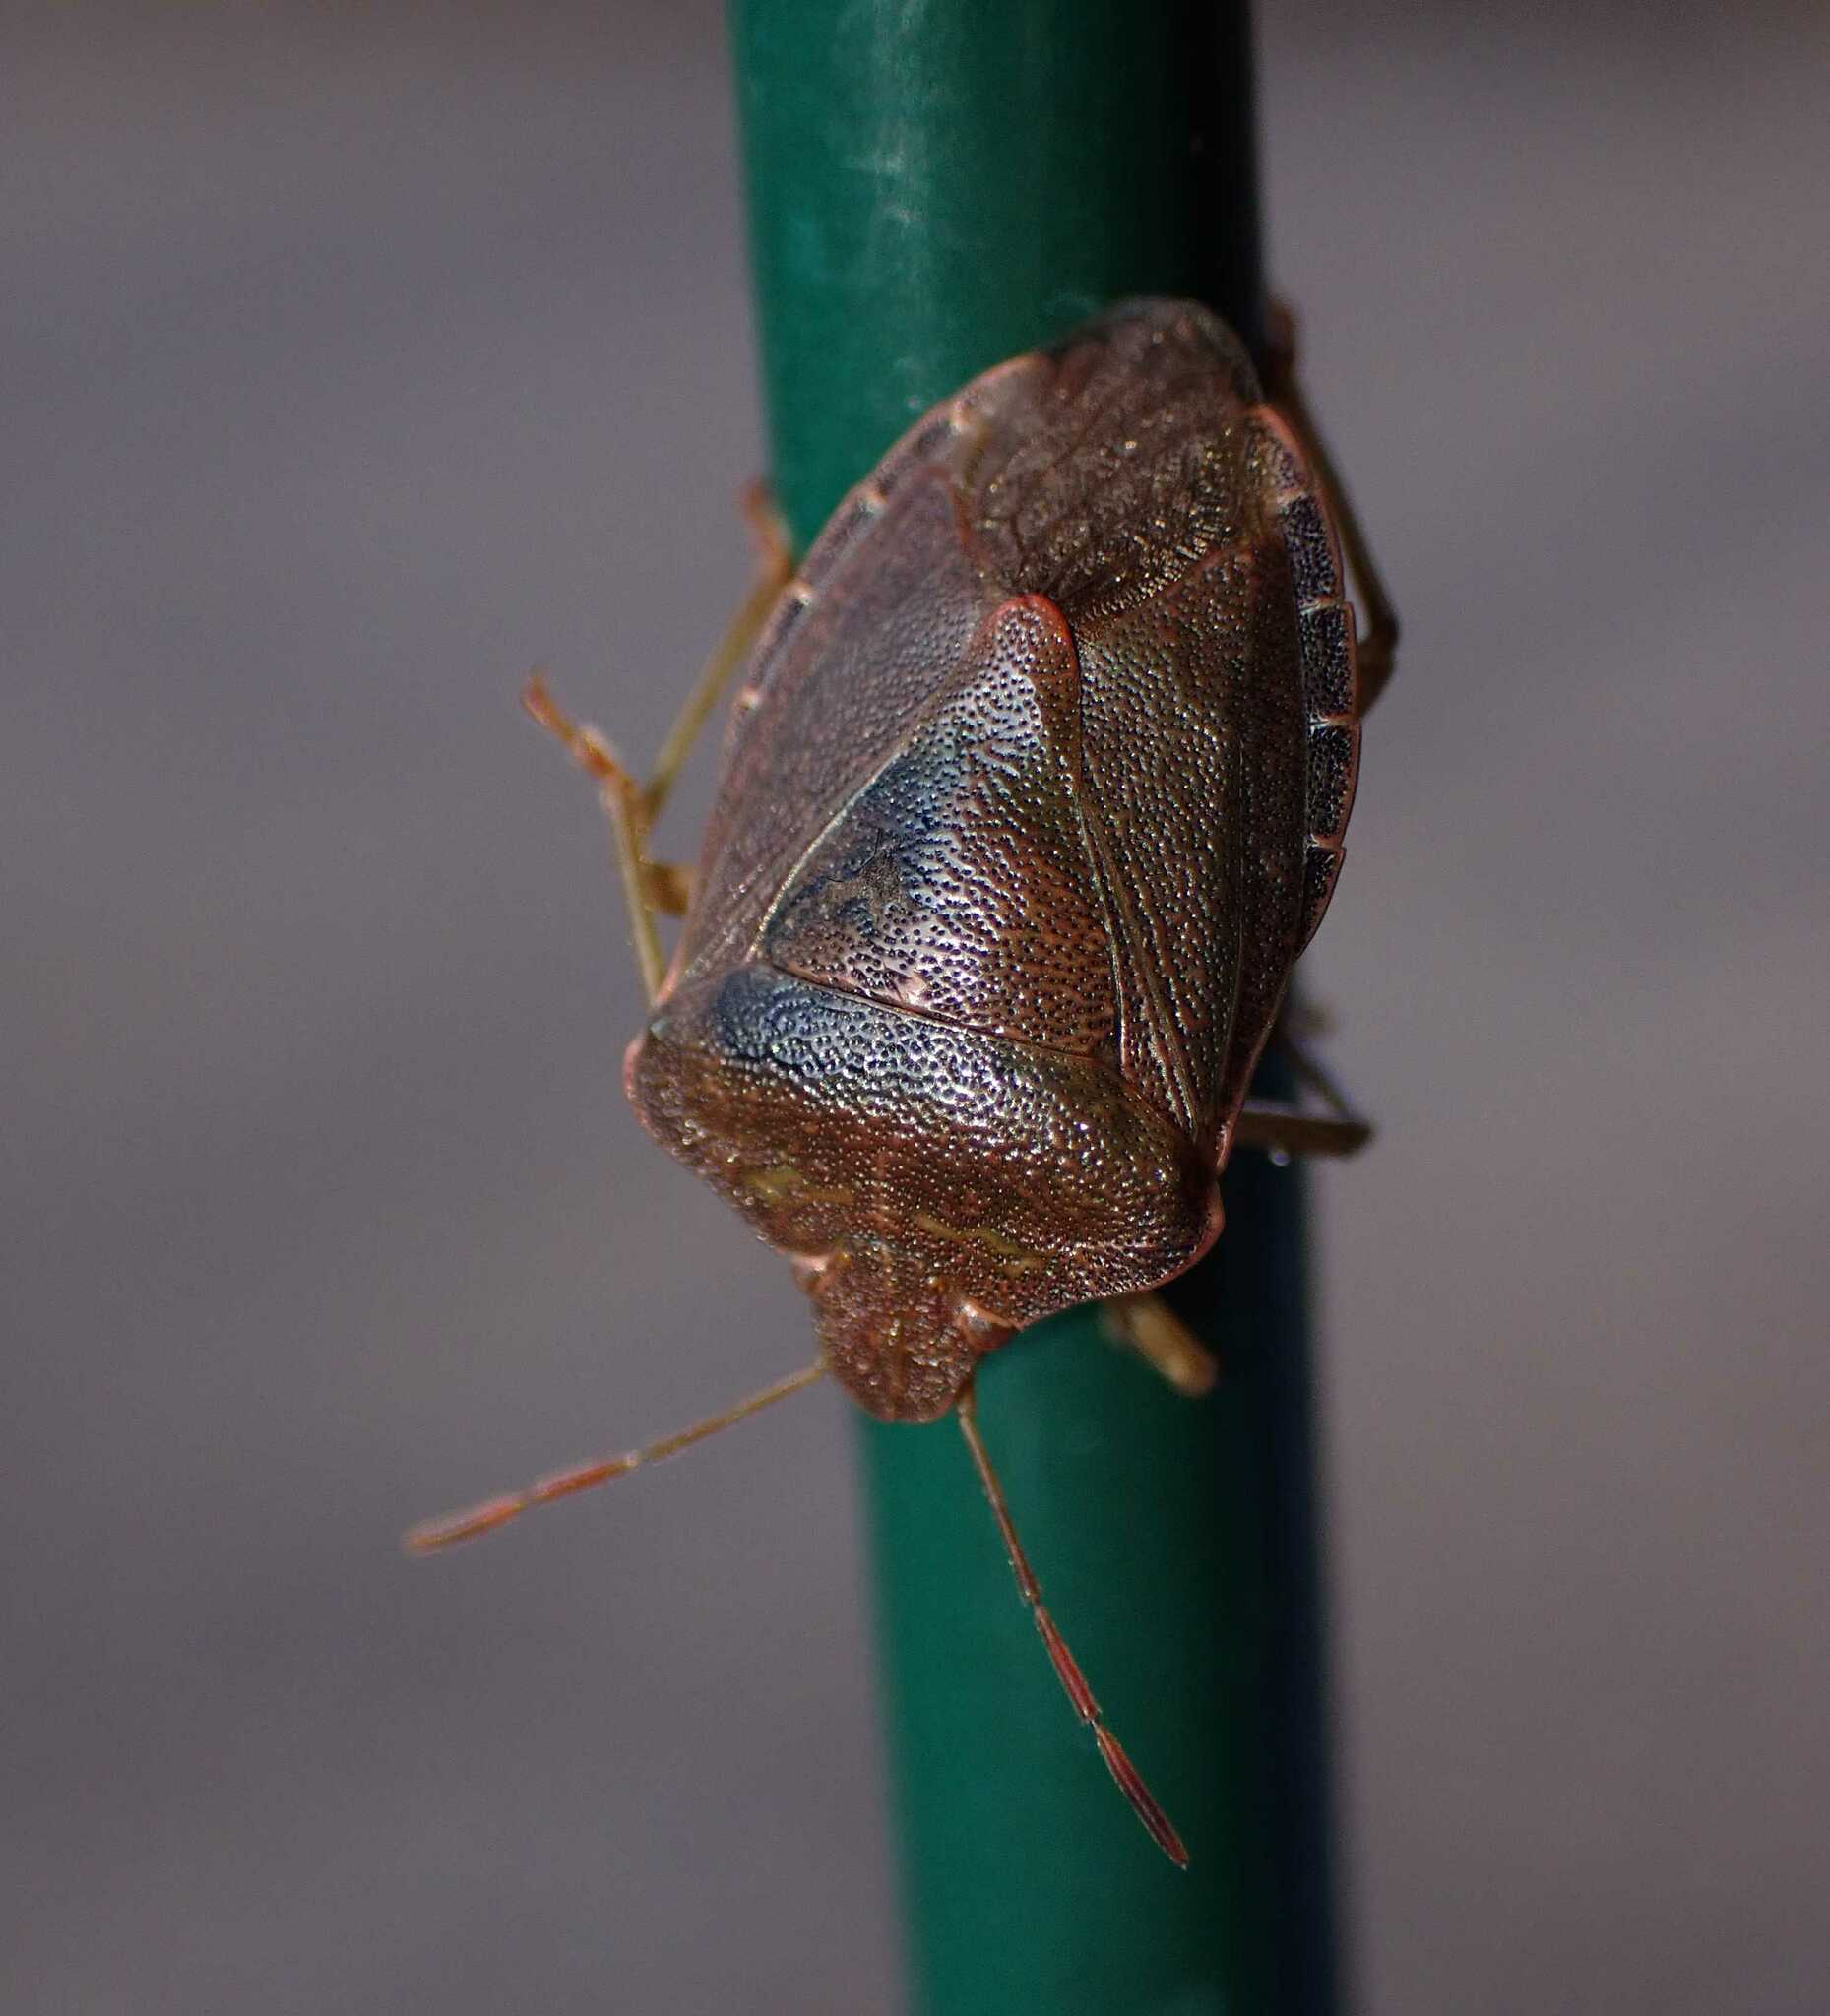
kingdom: Animalia
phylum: Arthropoda
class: Insecta
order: Hemiptera
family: Pentatomidae
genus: Palomena
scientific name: Palomena prasina
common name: Green shieldbug
